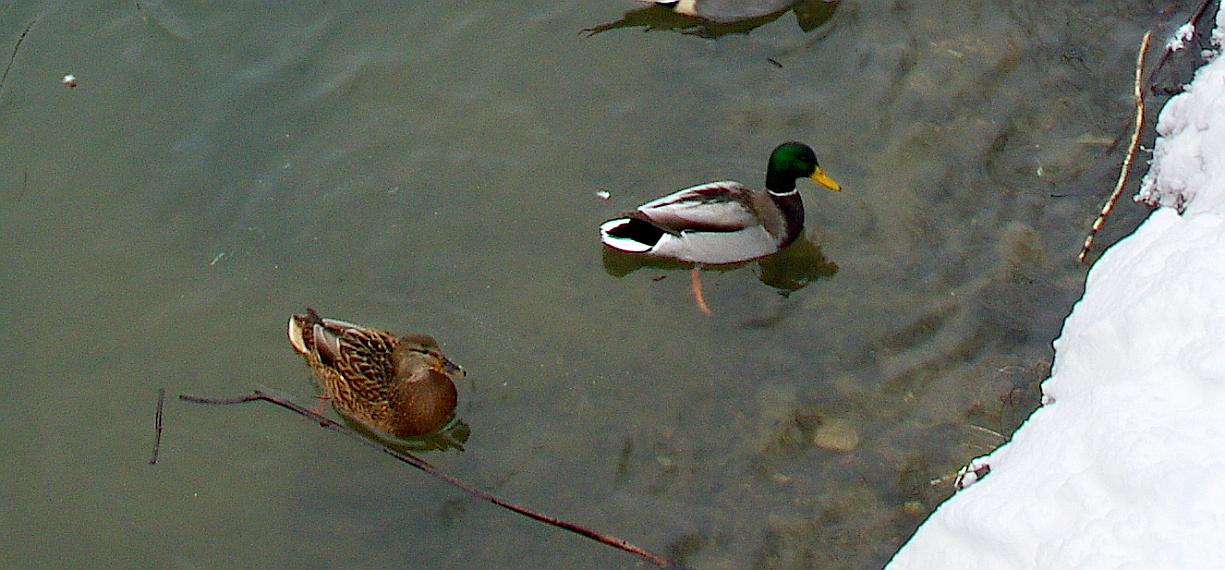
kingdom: Animalia
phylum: Chordata
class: Aves
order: Anseriformes
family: Anatidae
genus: Anas
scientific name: Anas platyrhynchos
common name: Mallard
